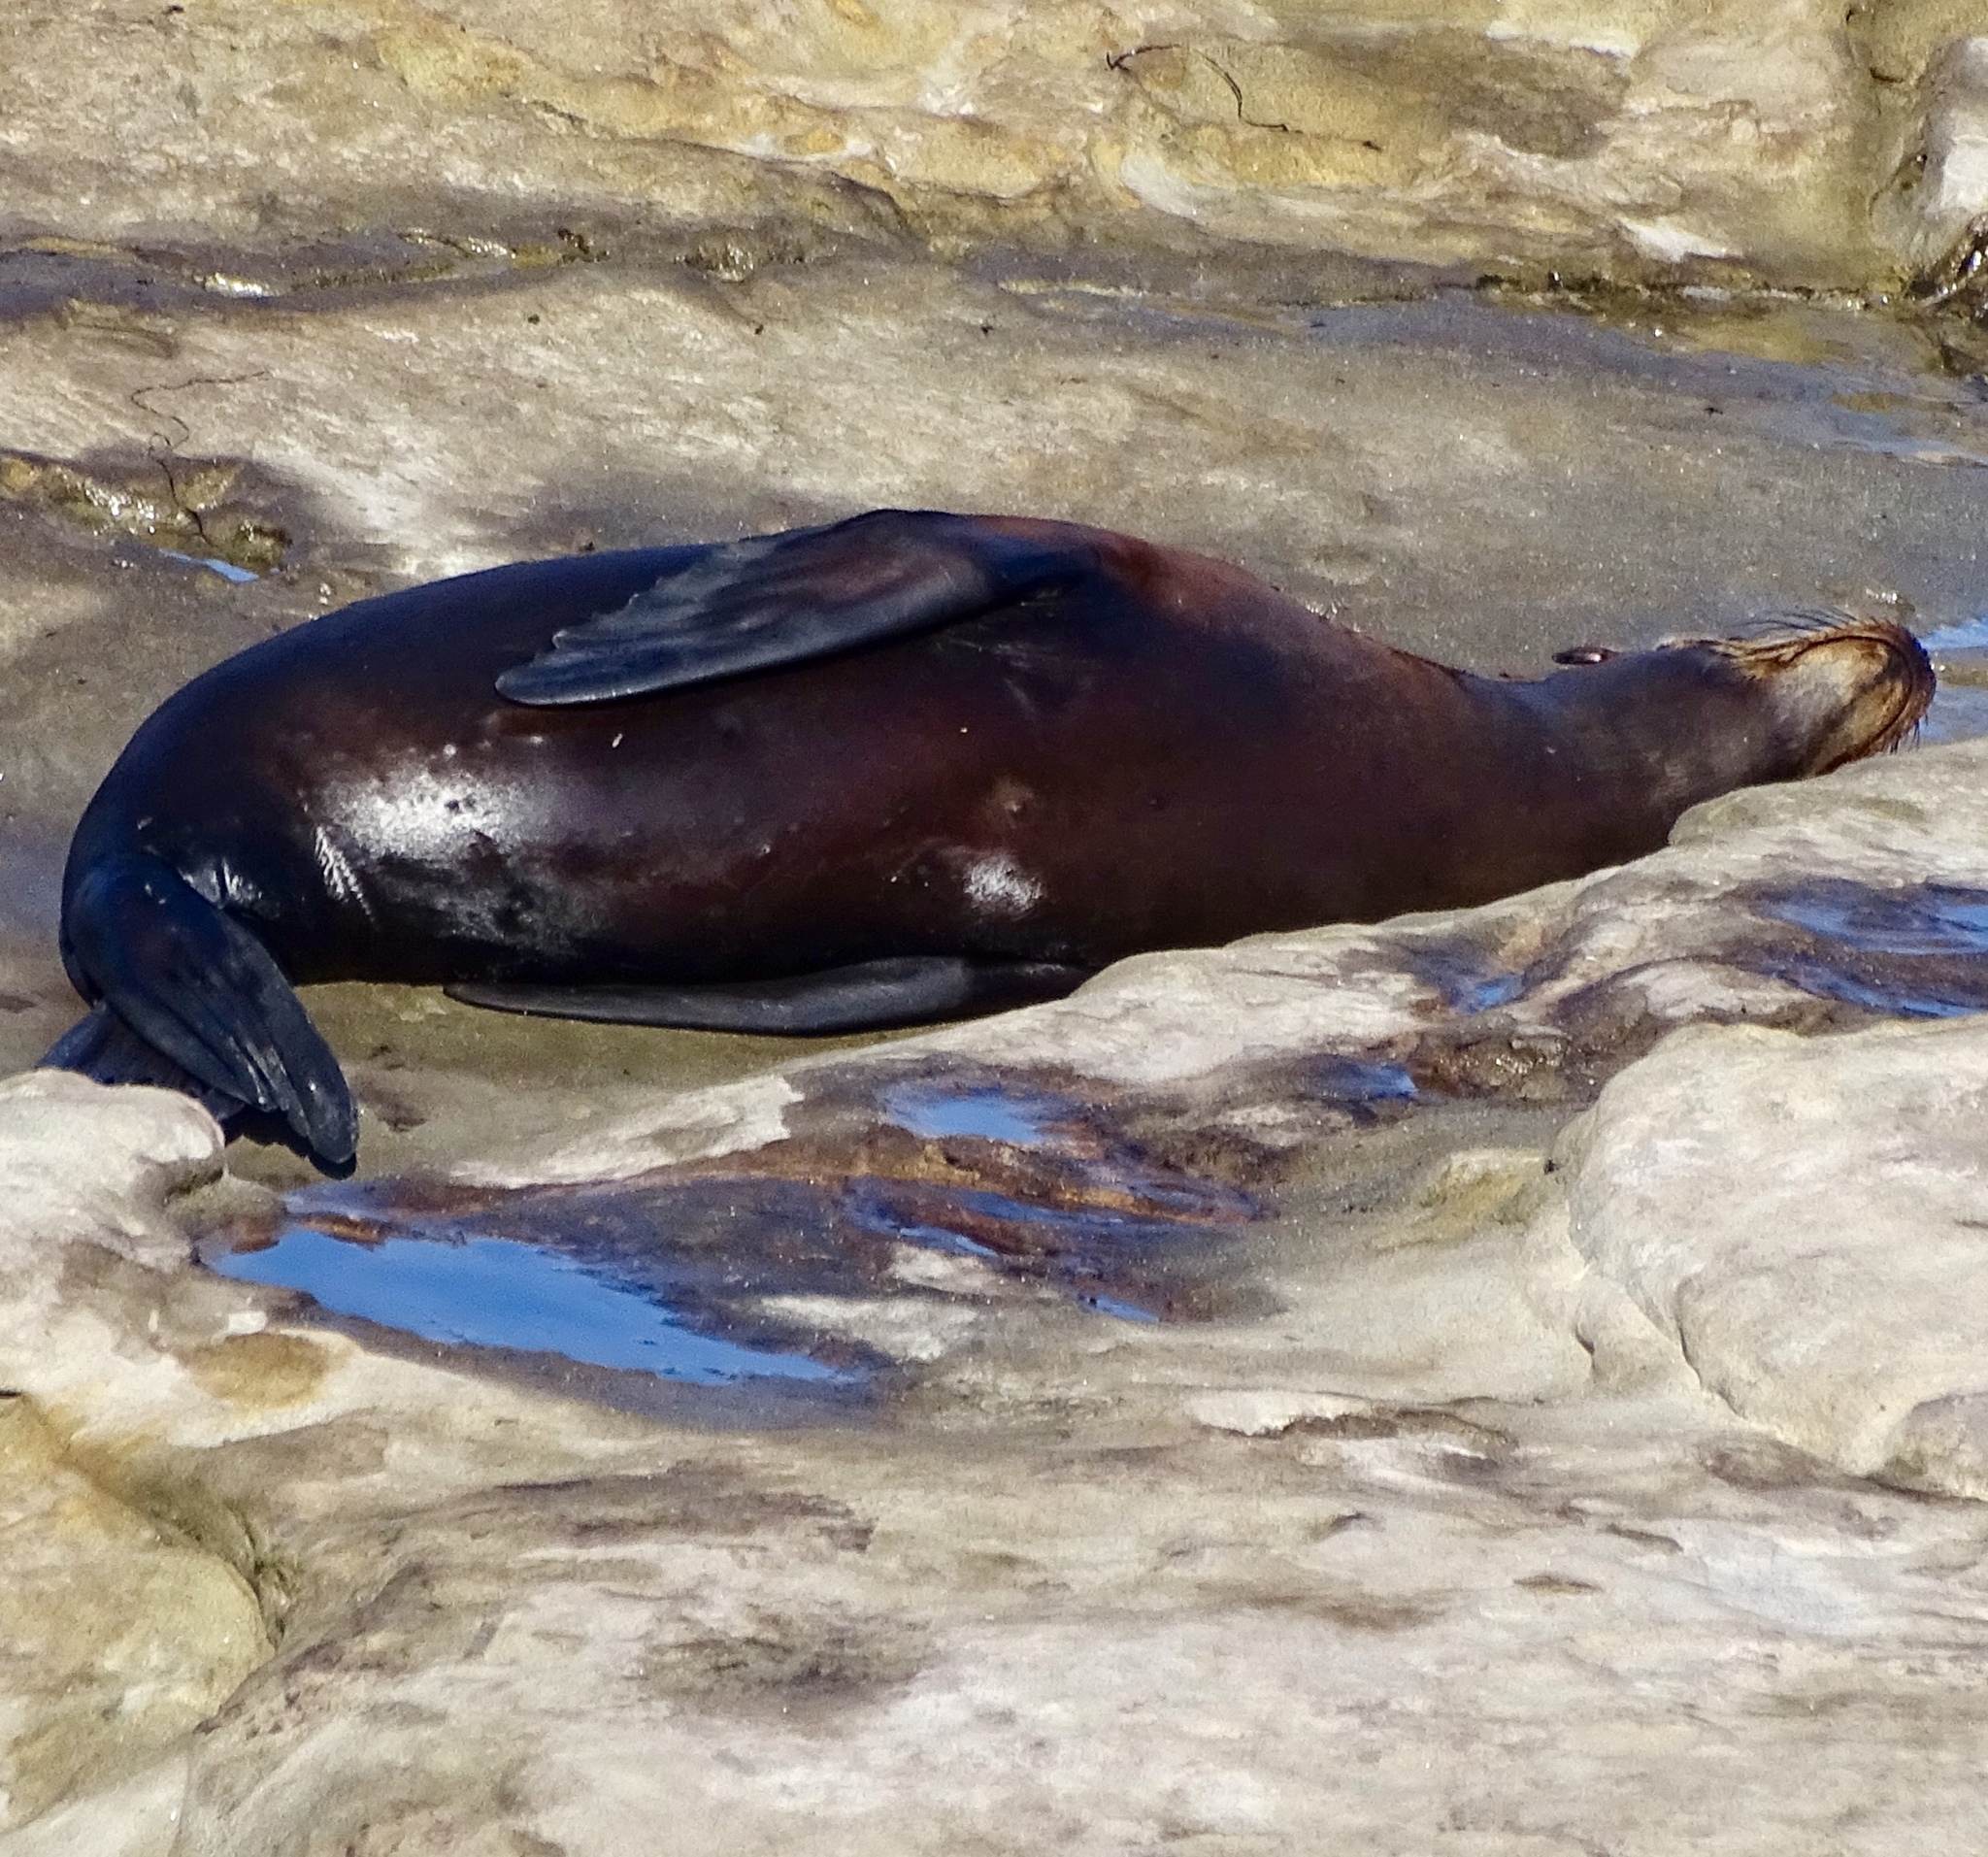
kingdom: Animalia
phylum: Chordata
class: Mammalia
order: Carnivora
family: Otariidae
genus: Zalophus
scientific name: Zalophus californianus
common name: California sea lion
